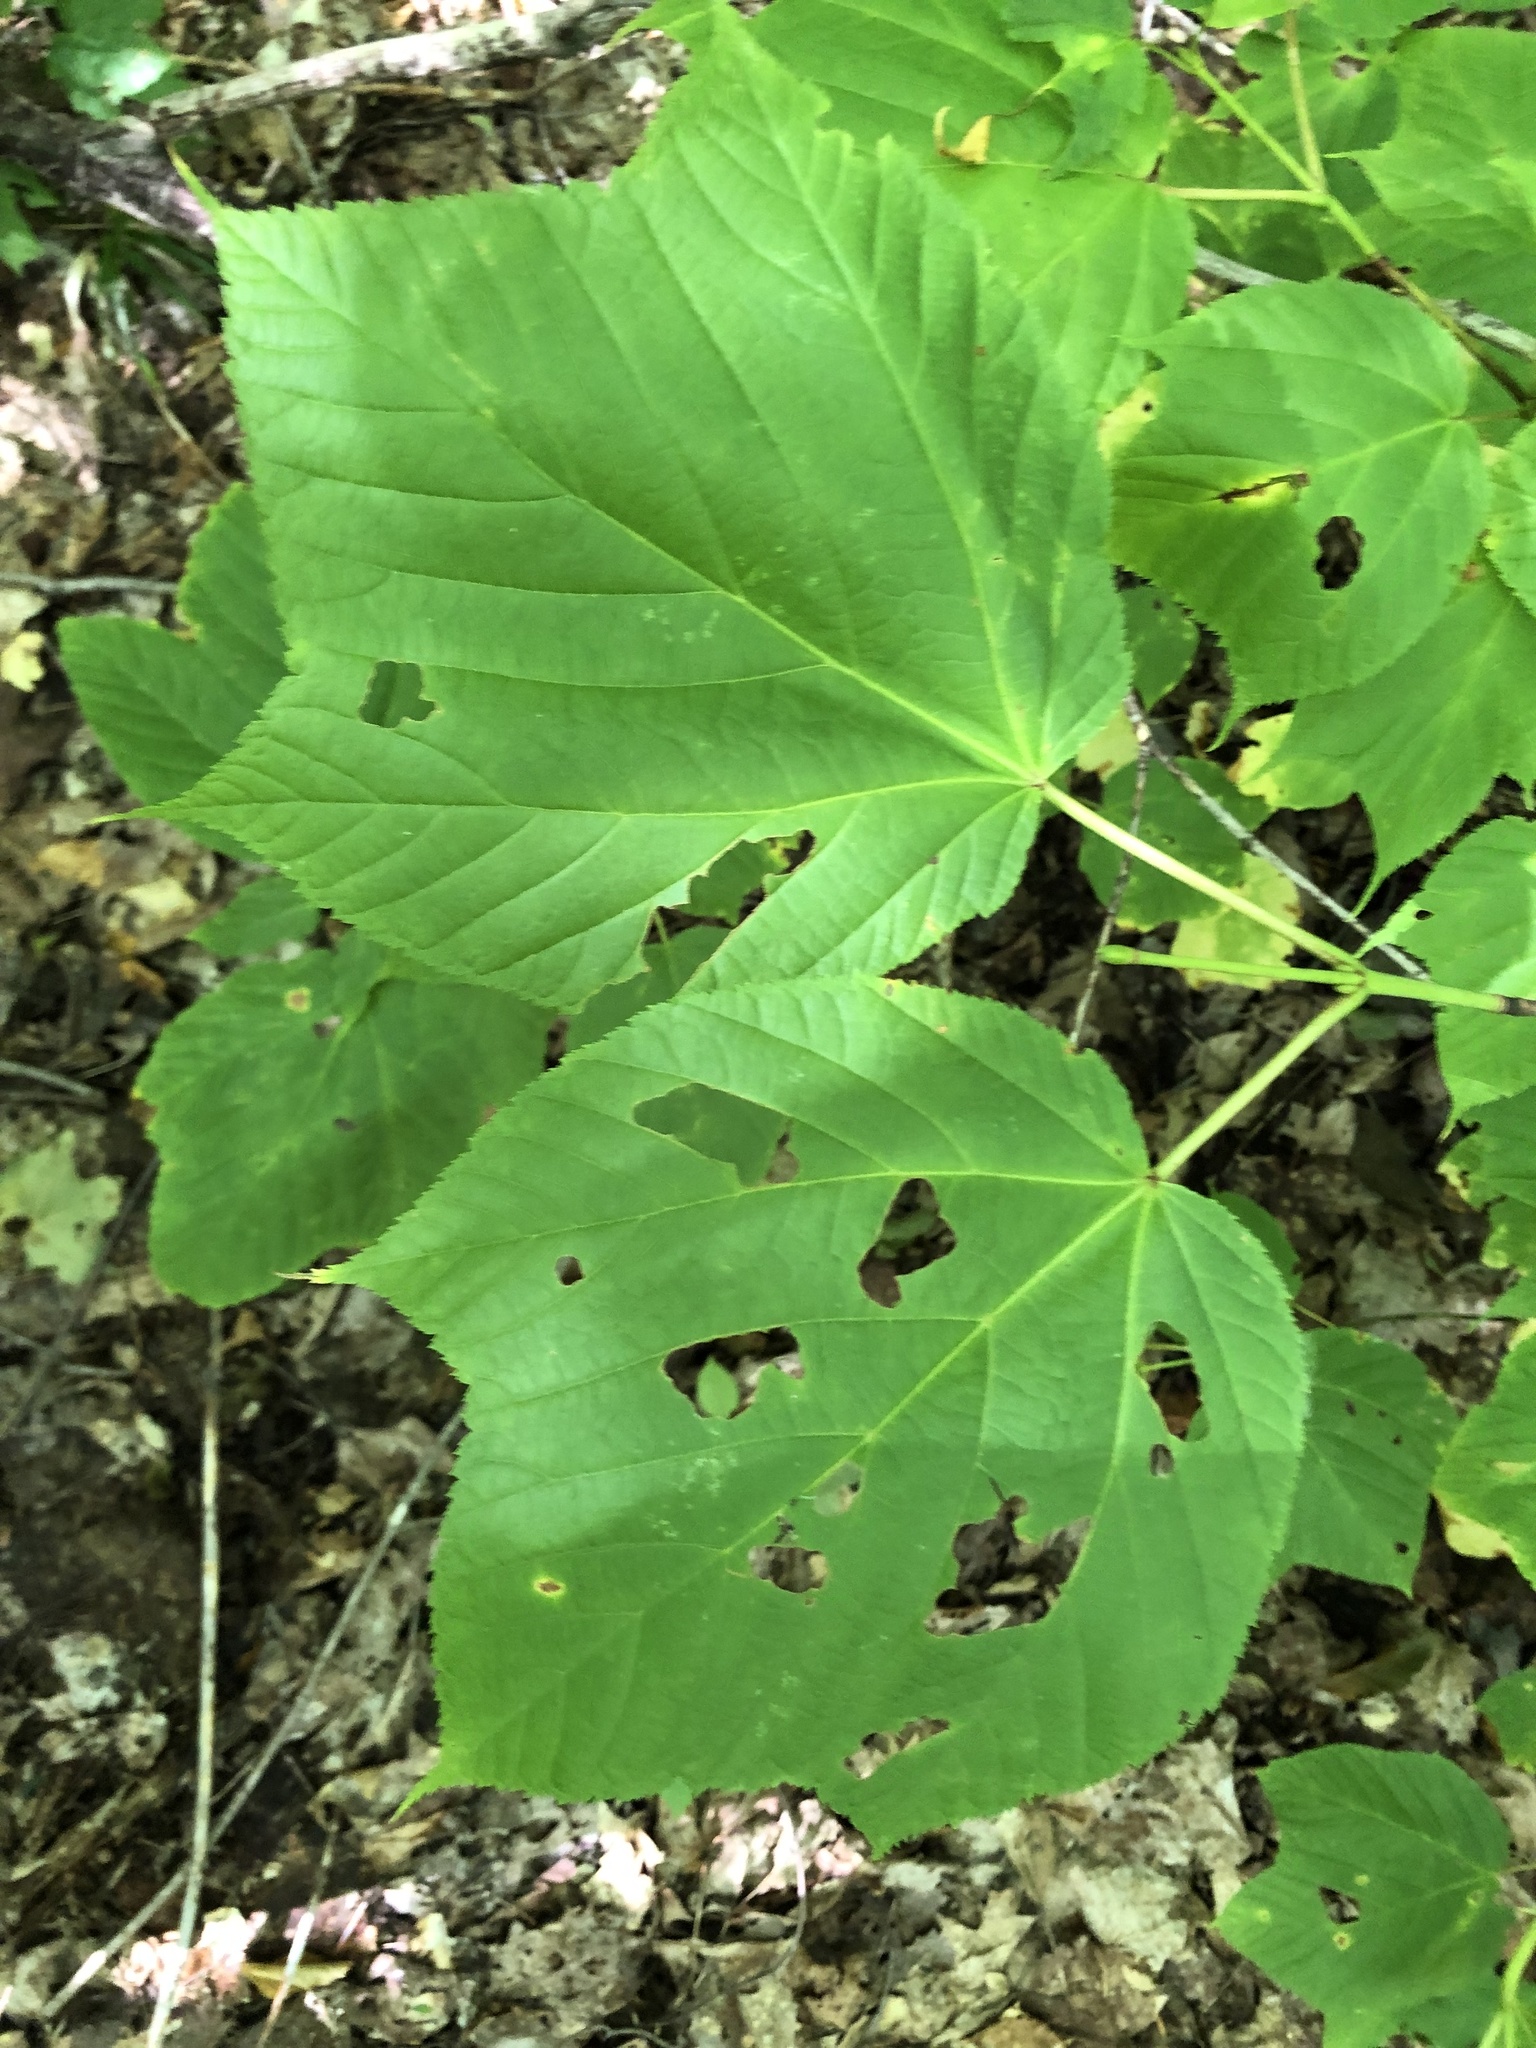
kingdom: Plantae
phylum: Tracheophyta
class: Magnoliopsida
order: Sapindales
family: Sapindaceae
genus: Acer
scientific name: Acer pensylvanicum
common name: Moosewood
